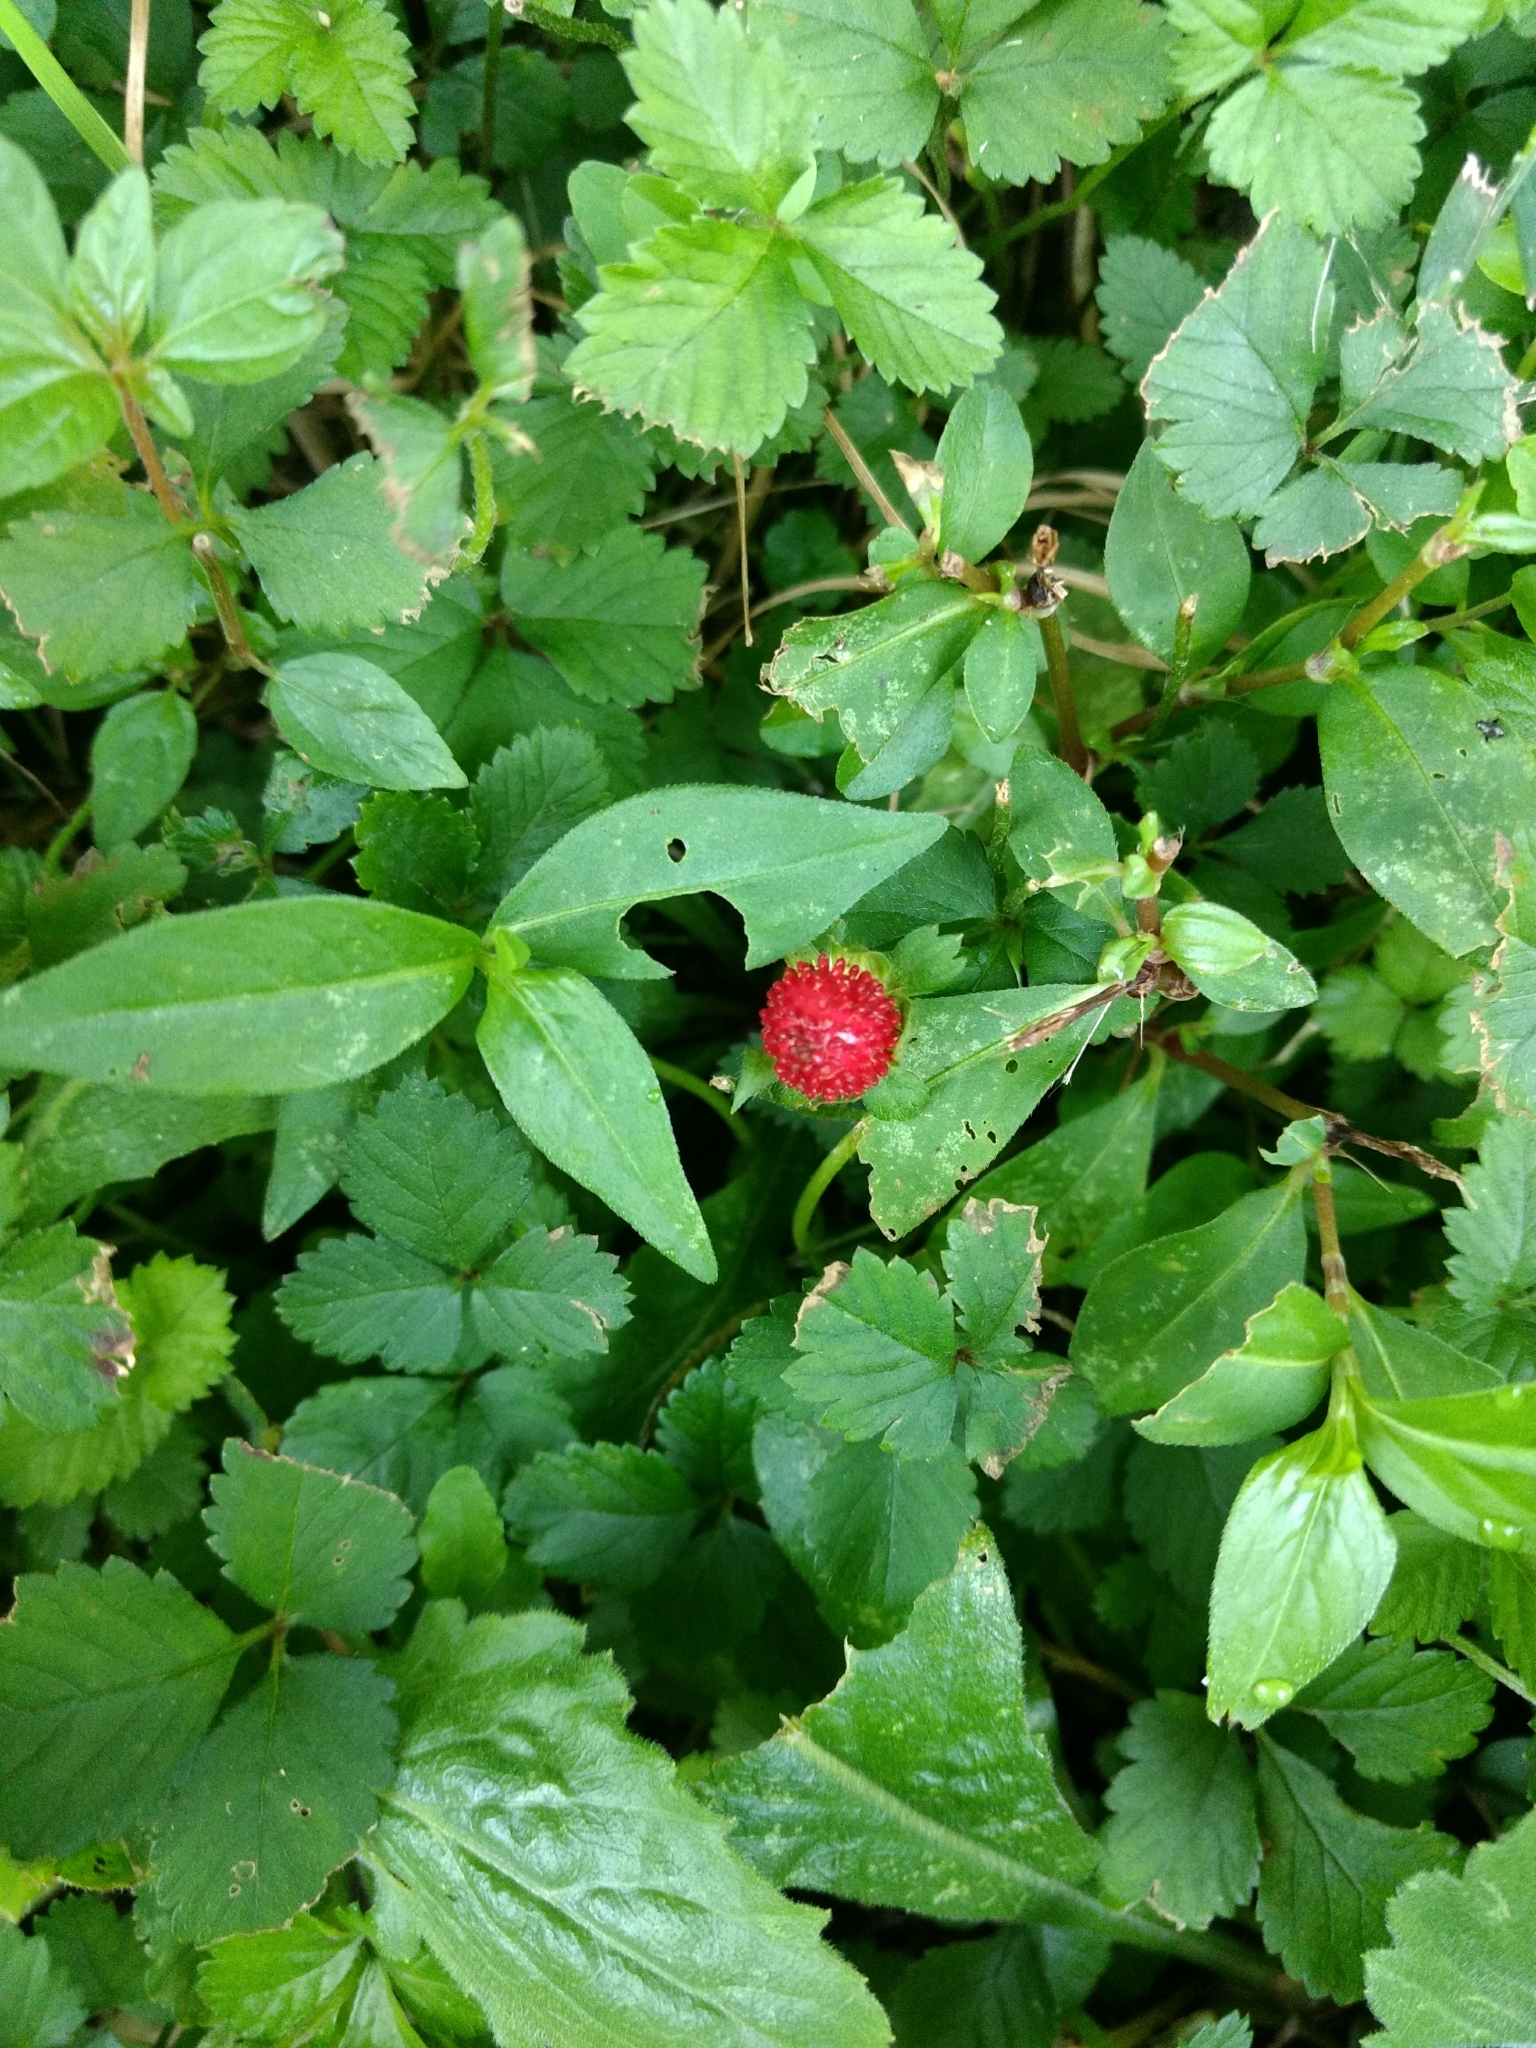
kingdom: Plantae
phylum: Tracheophyta
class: Magnoliopsida
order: Rosales
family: Rosaceae
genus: Potentilla
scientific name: Potentilla indica
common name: Yellow-flowered strawberry
